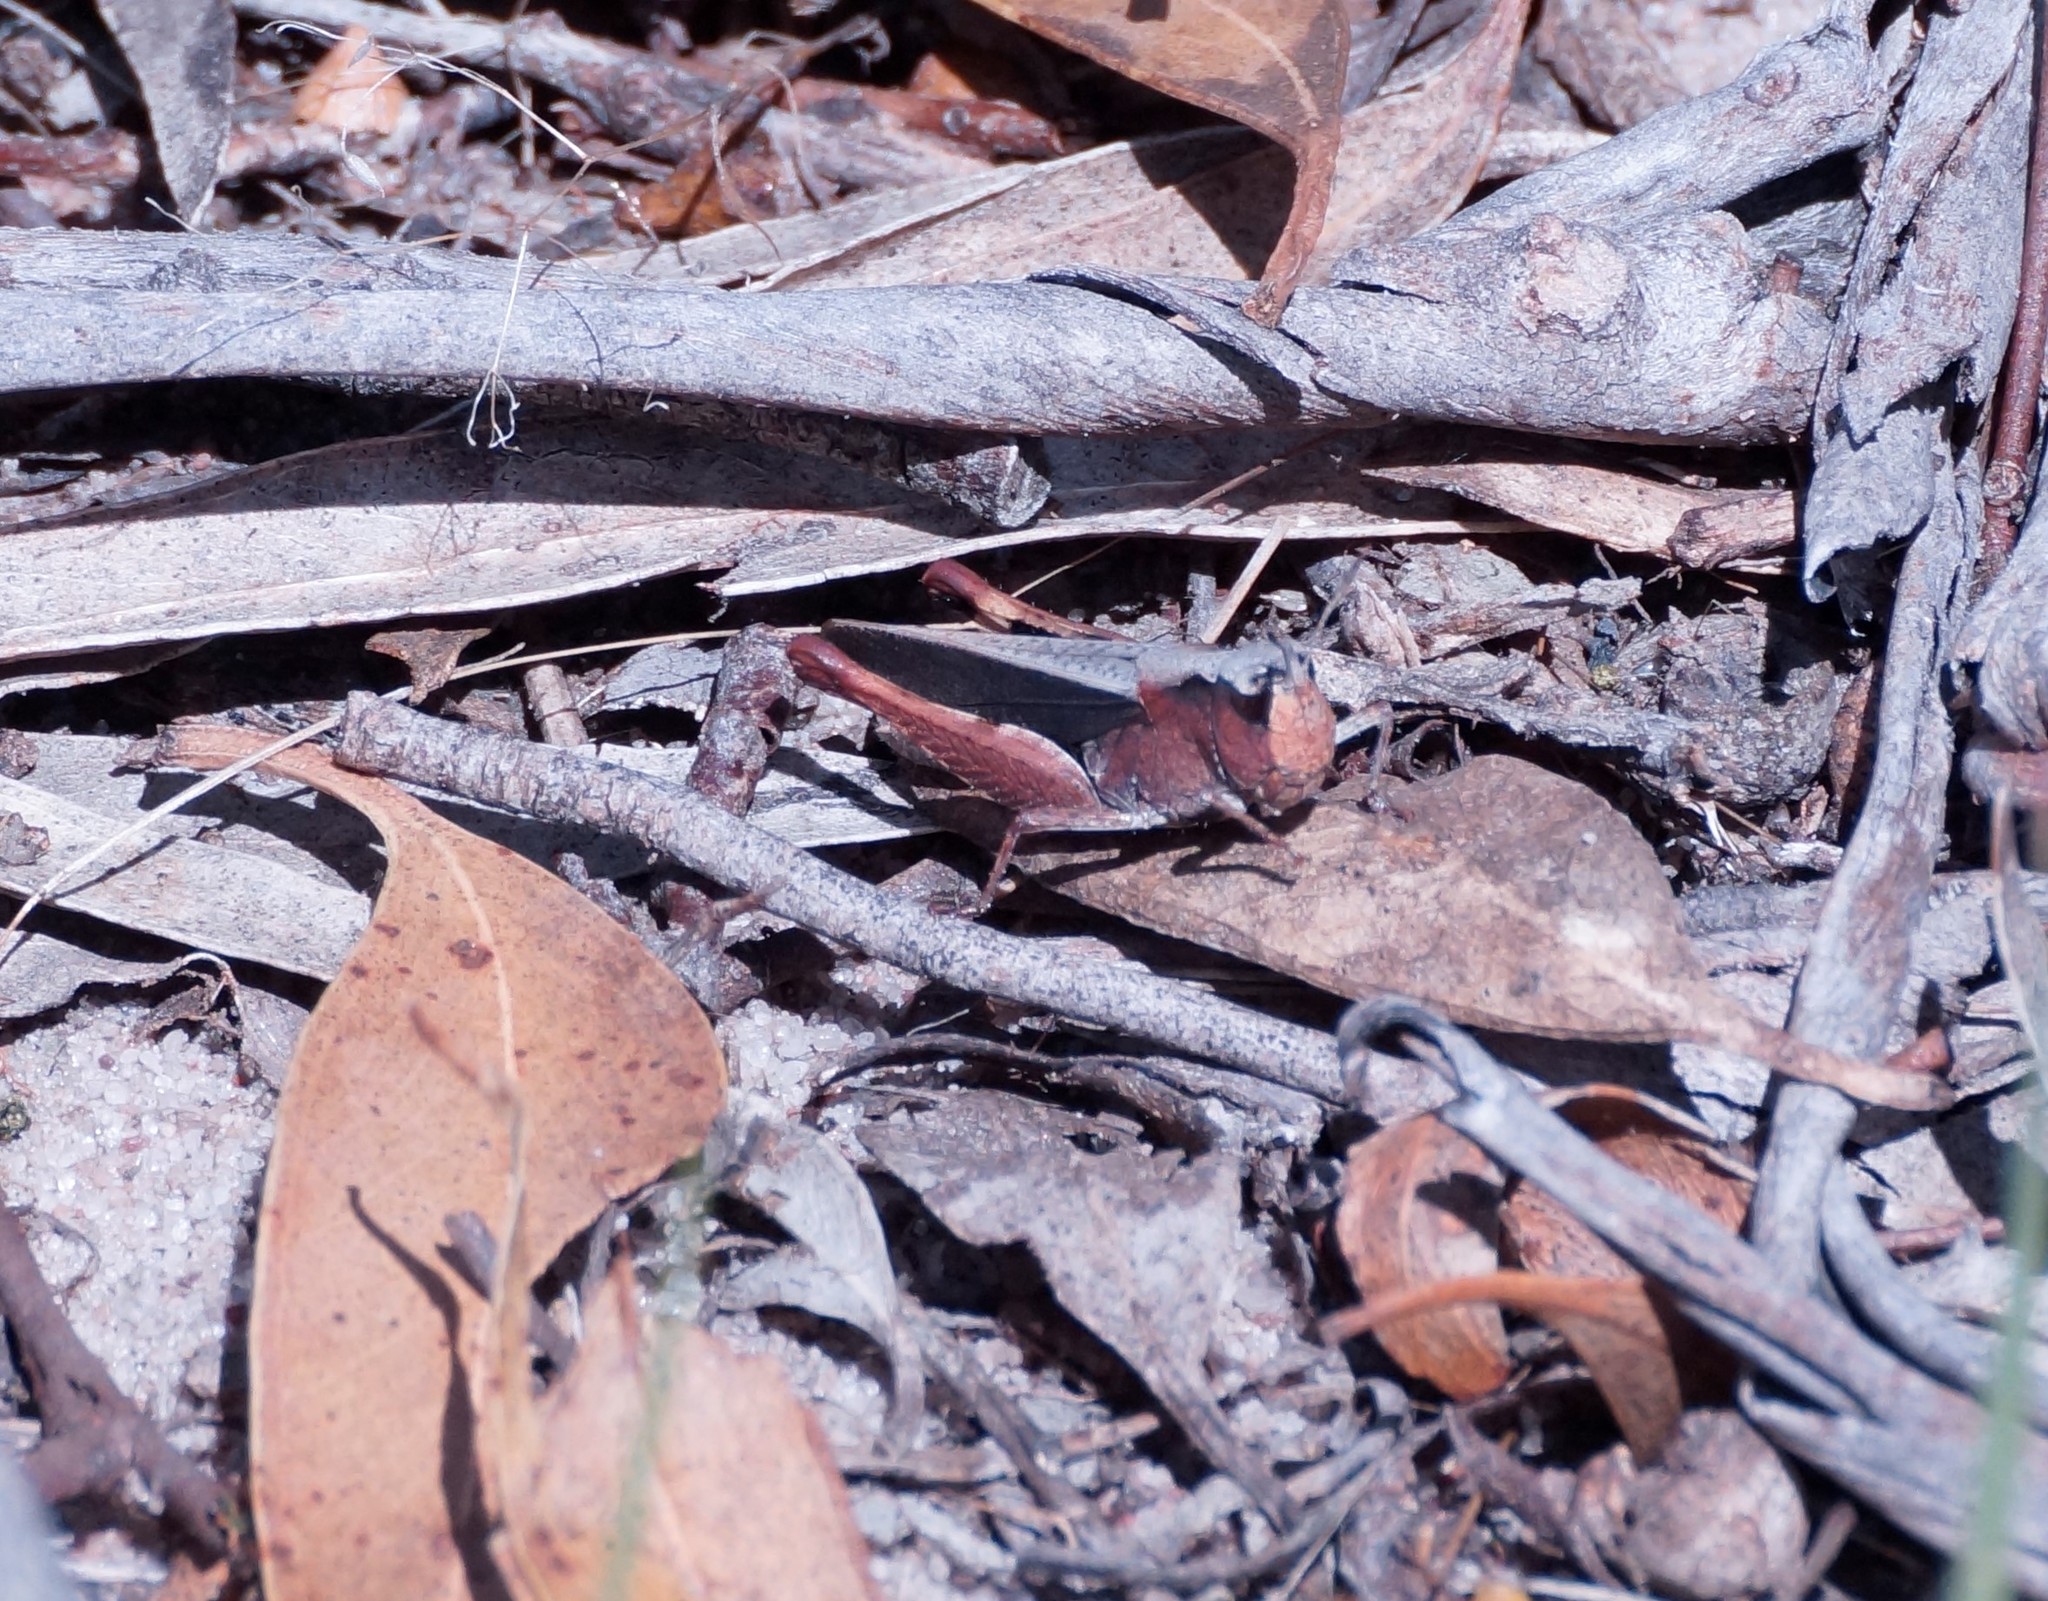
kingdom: Animalia
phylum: Arthropoda
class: Insecta
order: Orthoptera
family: Acrididae
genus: Cryptobothrus
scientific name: Cryptobothrus chrysophorus
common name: Golden bandwing
